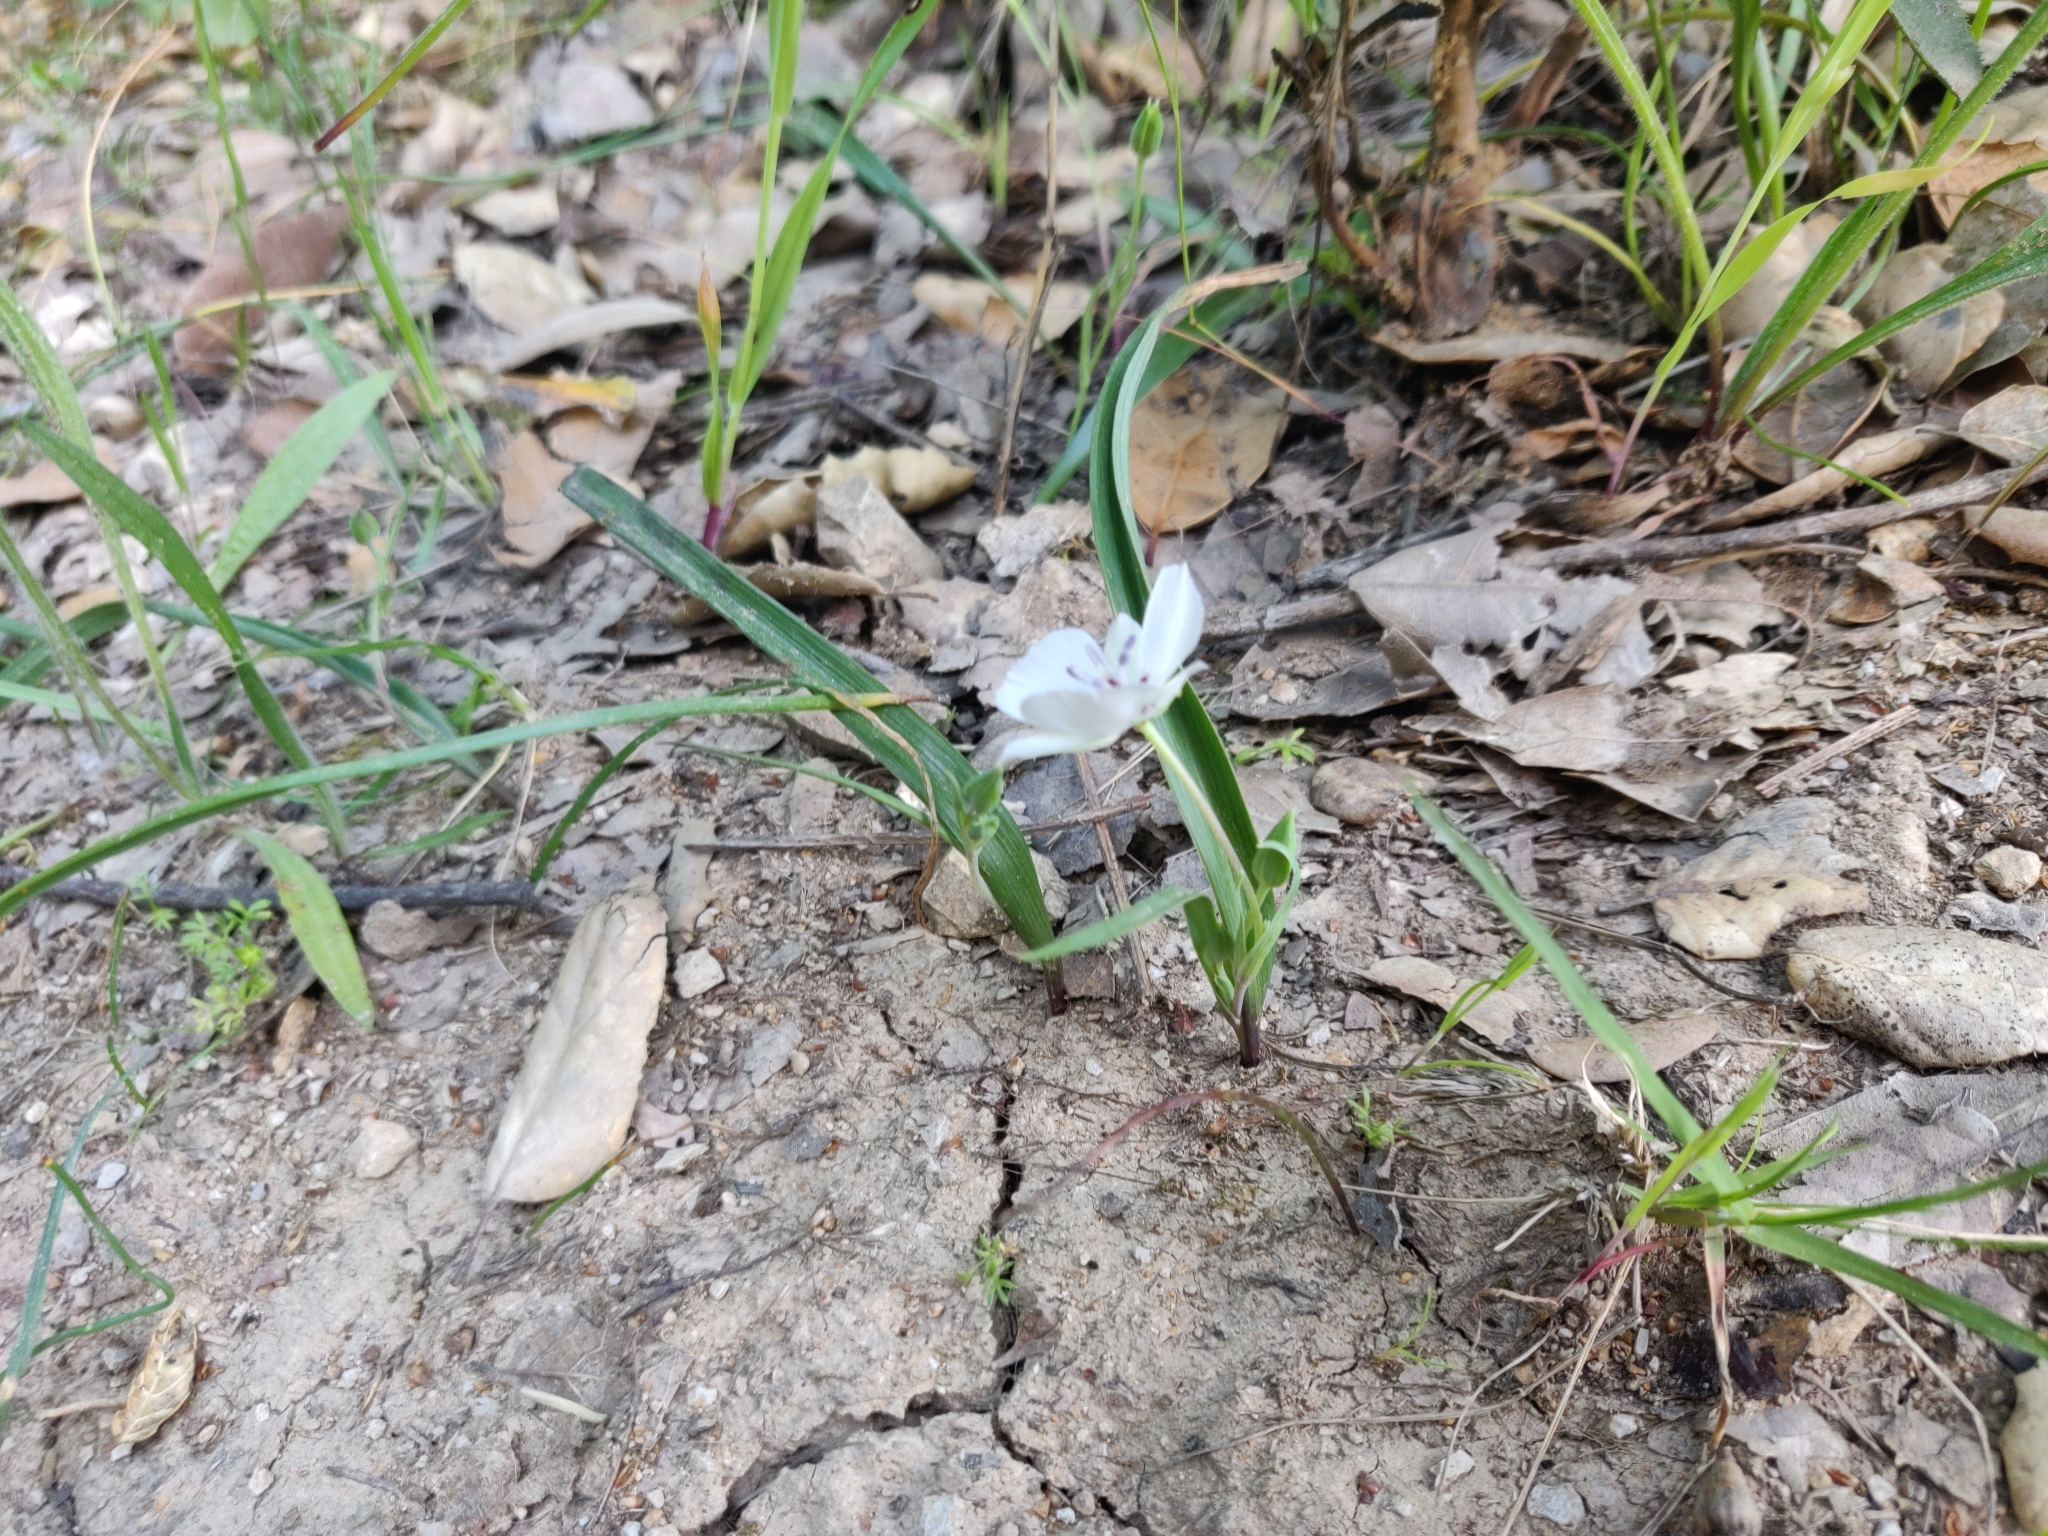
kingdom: Plantae
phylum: Tracheophyta
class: Liliopsida
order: Liliales
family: Liliaceae
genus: Calochortus
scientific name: Calochortus umbellatus
